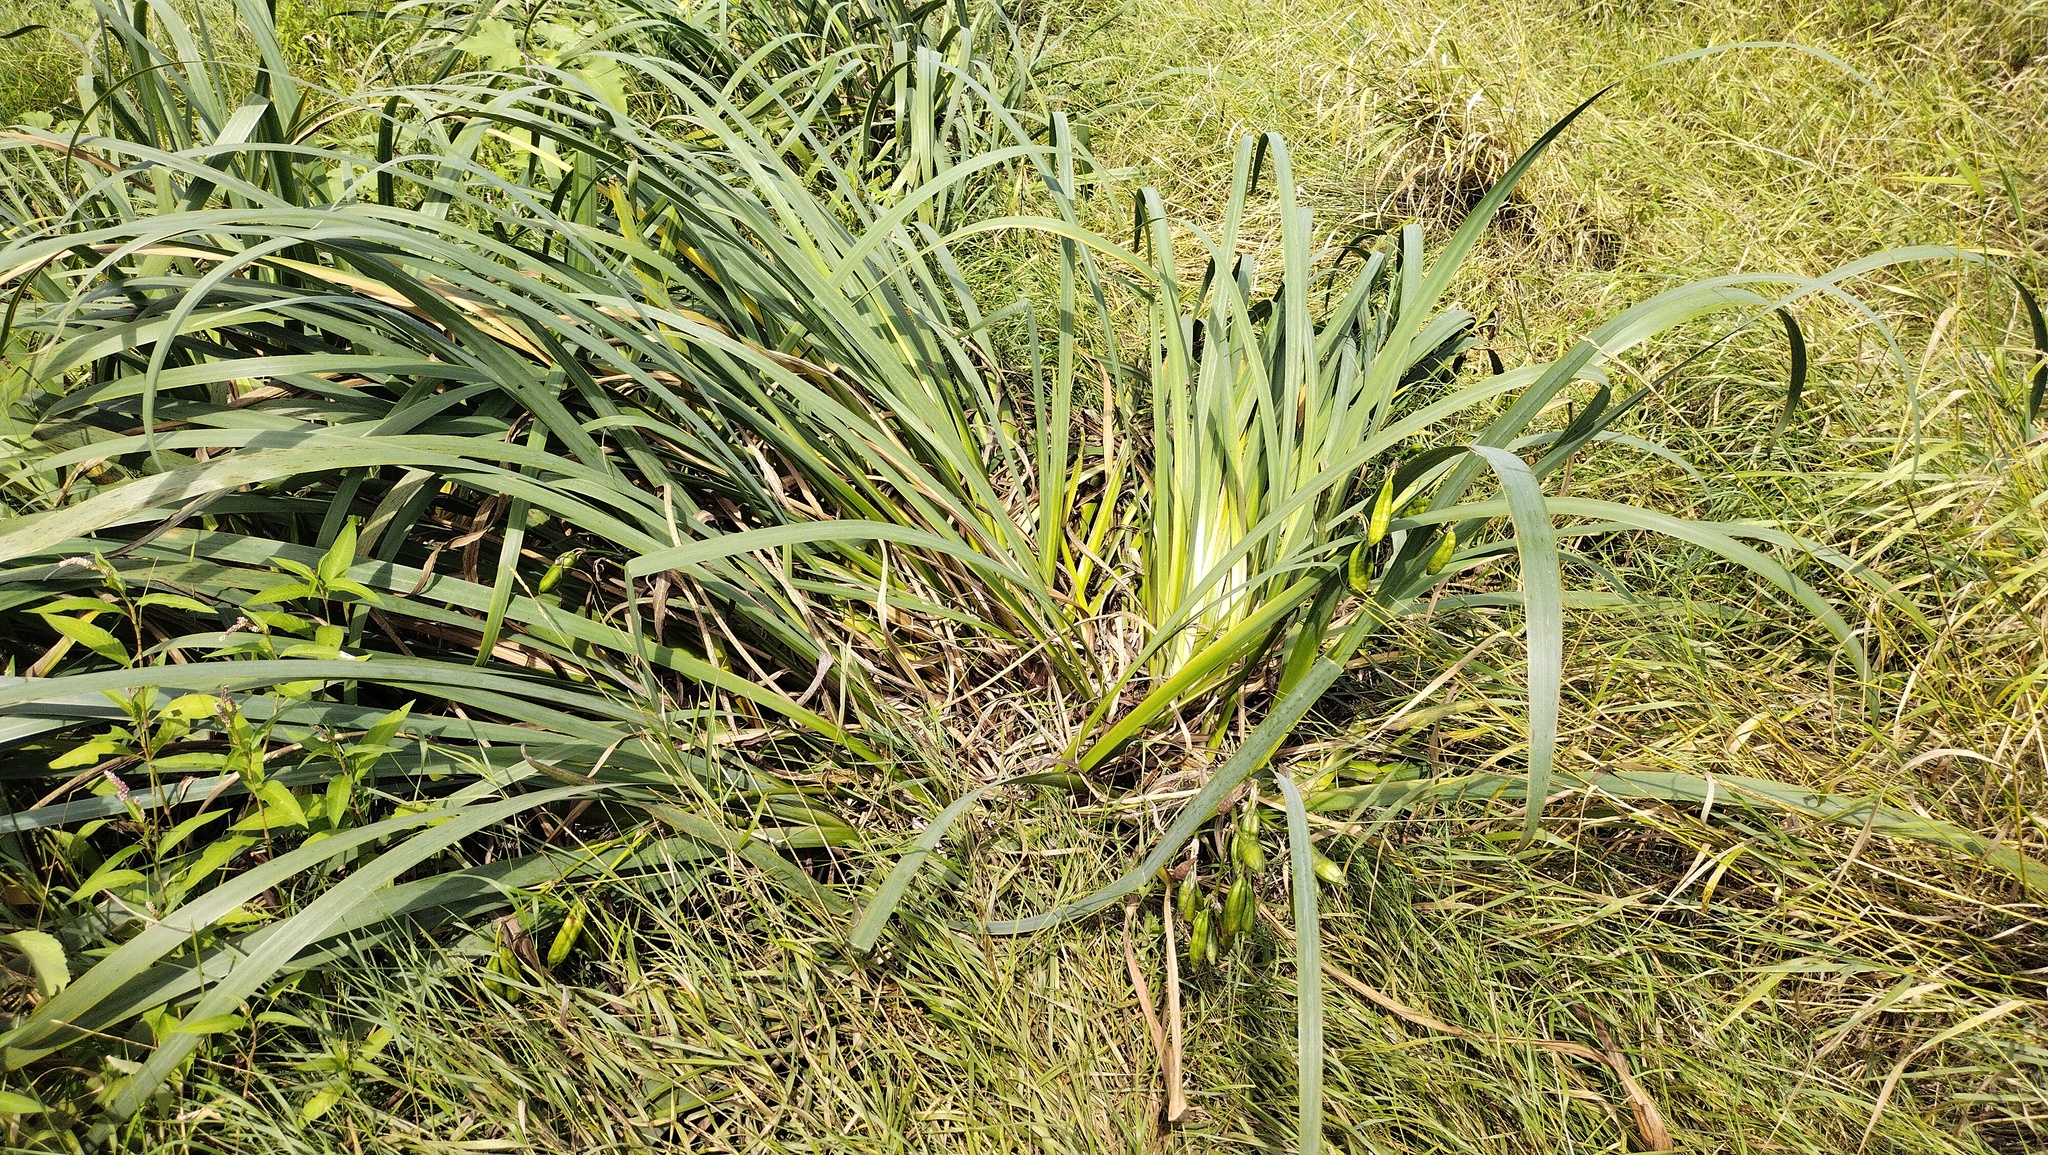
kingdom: Plantae
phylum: Tracheophyta
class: Liliopsida
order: Asparagales
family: Iridaceae
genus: Iris
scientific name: Iris pseudacorus
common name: Yellow flag
